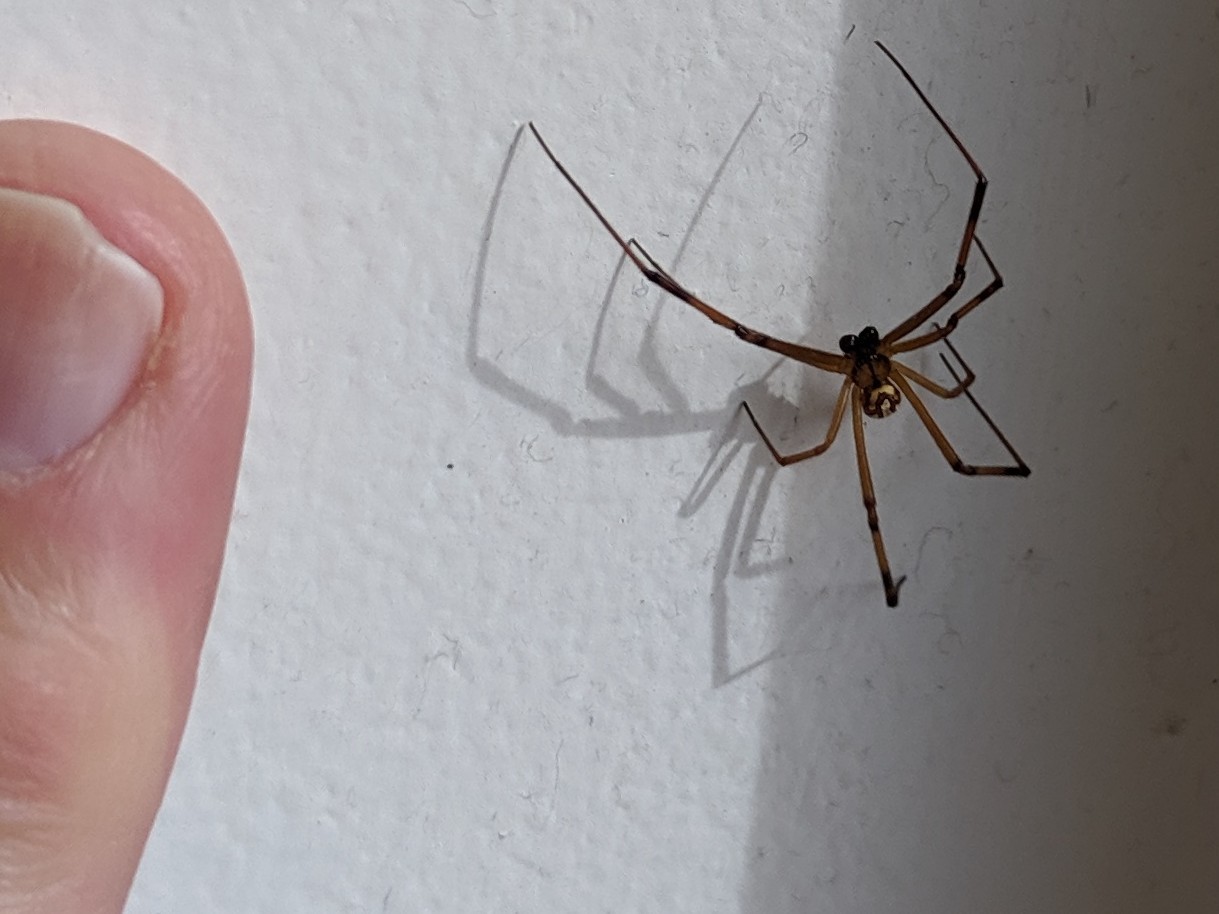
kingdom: Animalia
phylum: Arthropoda
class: Arachnida
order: Araneae
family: Theridiidae
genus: Latrodectus
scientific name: Latrodectus hesperus
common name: Western black widow
